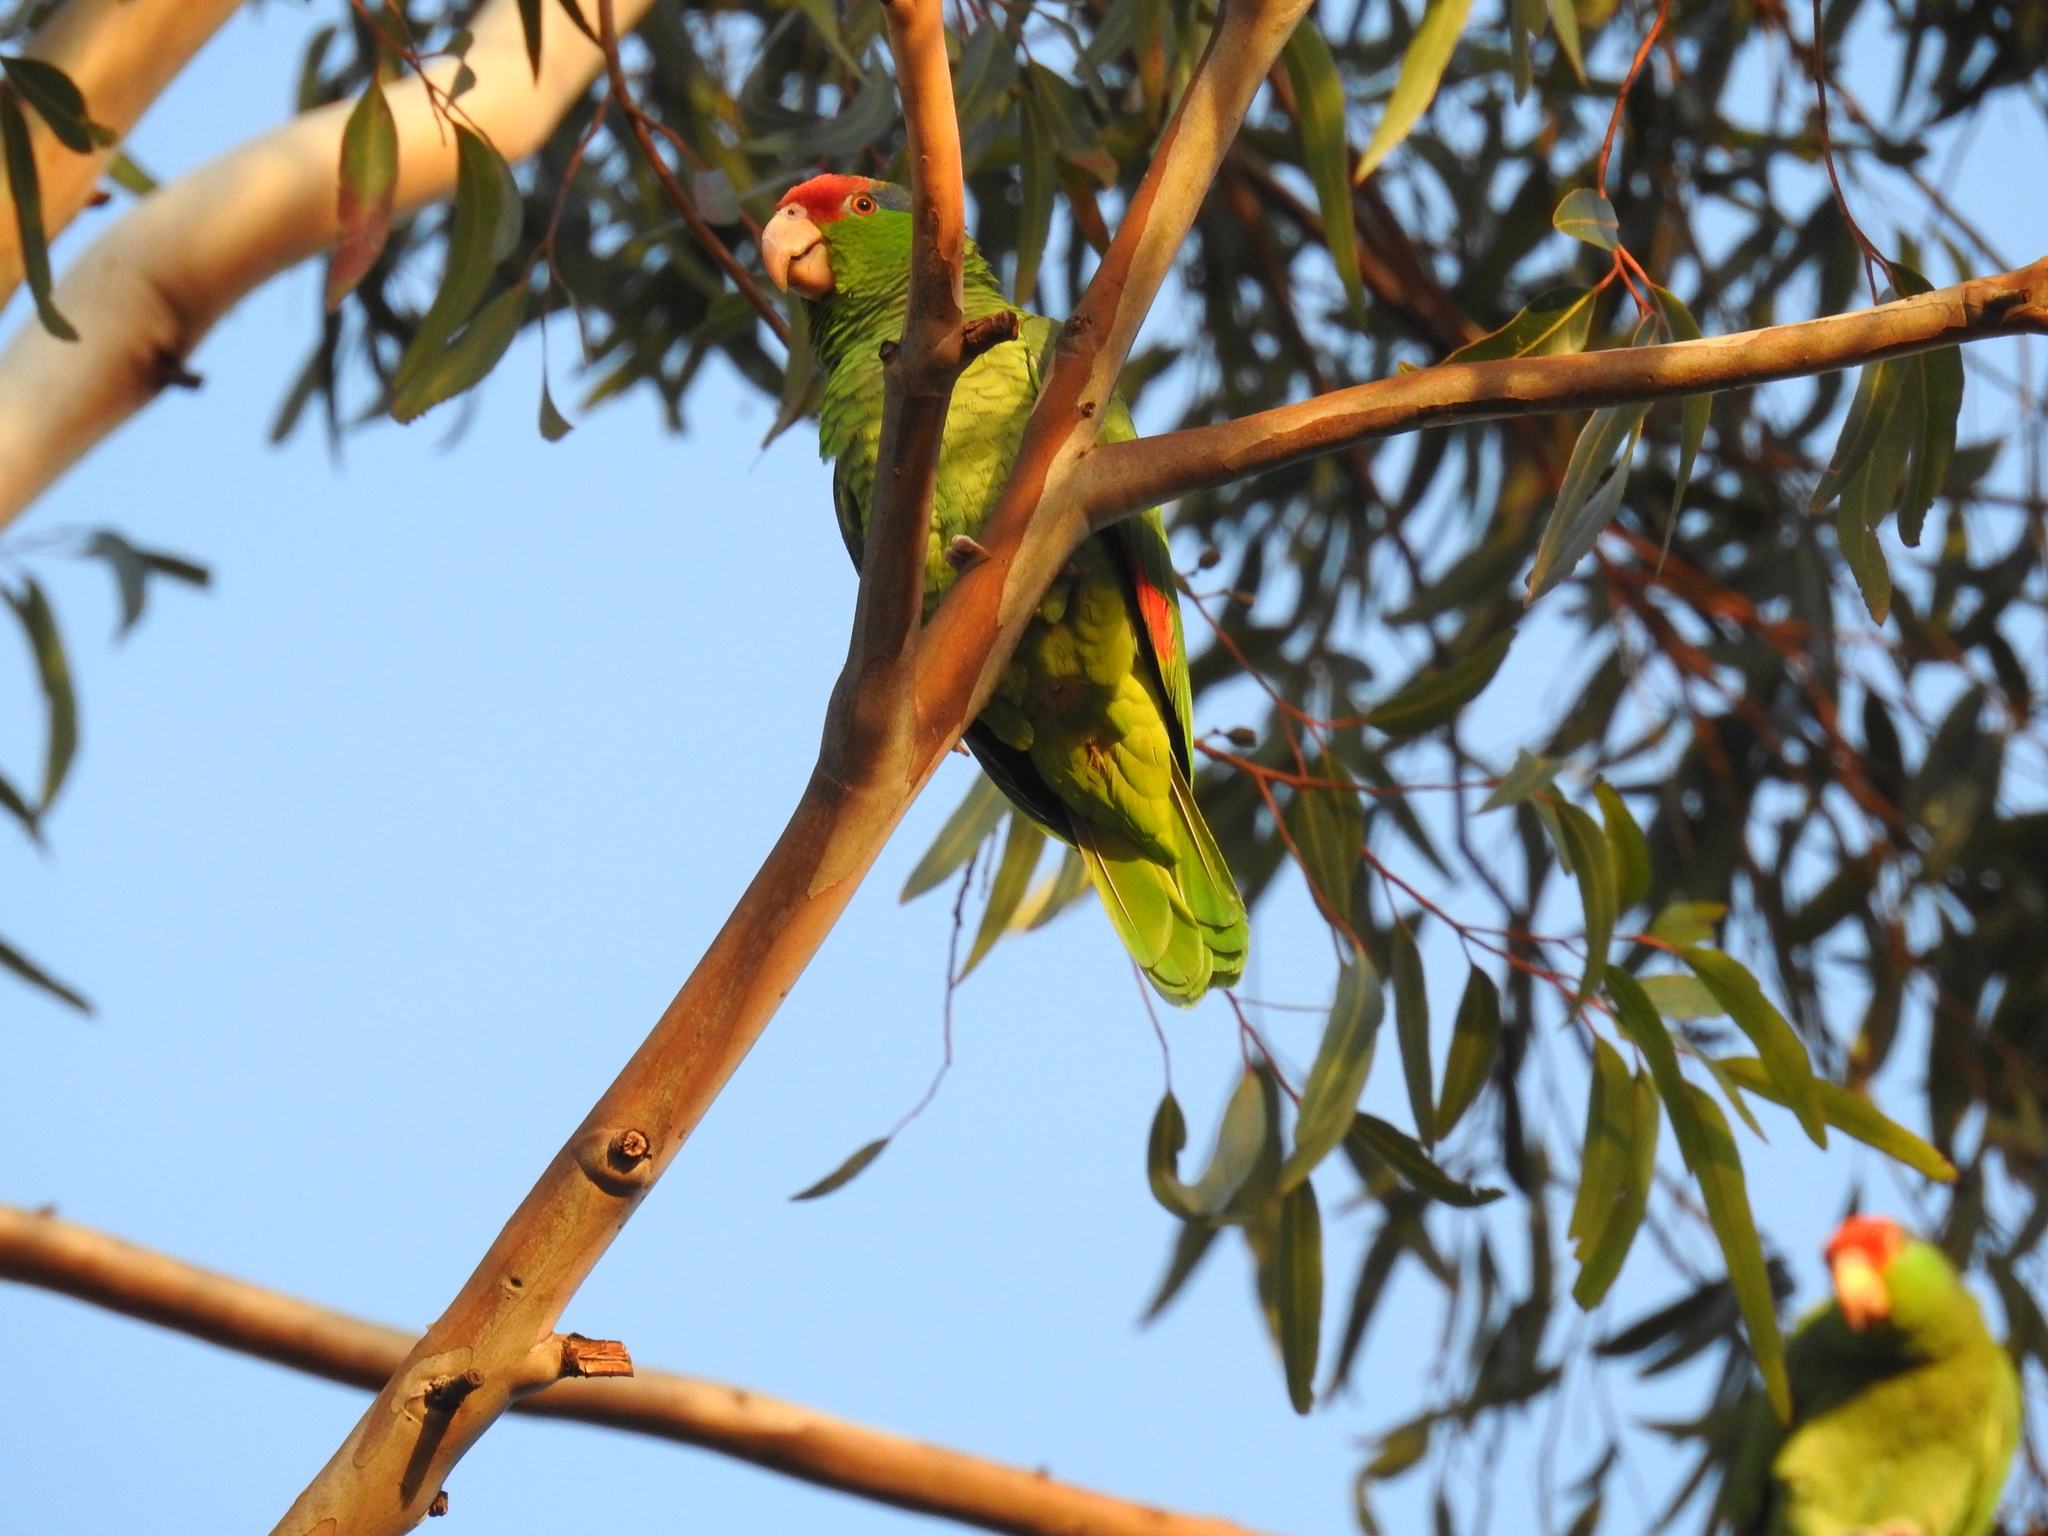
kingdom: Animalia
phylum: Chordata
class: Aves
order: Psittaciformes
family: Psittacidae
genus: Amazona
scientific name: Amazona viridigenalis
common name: Red-crowned amazon
